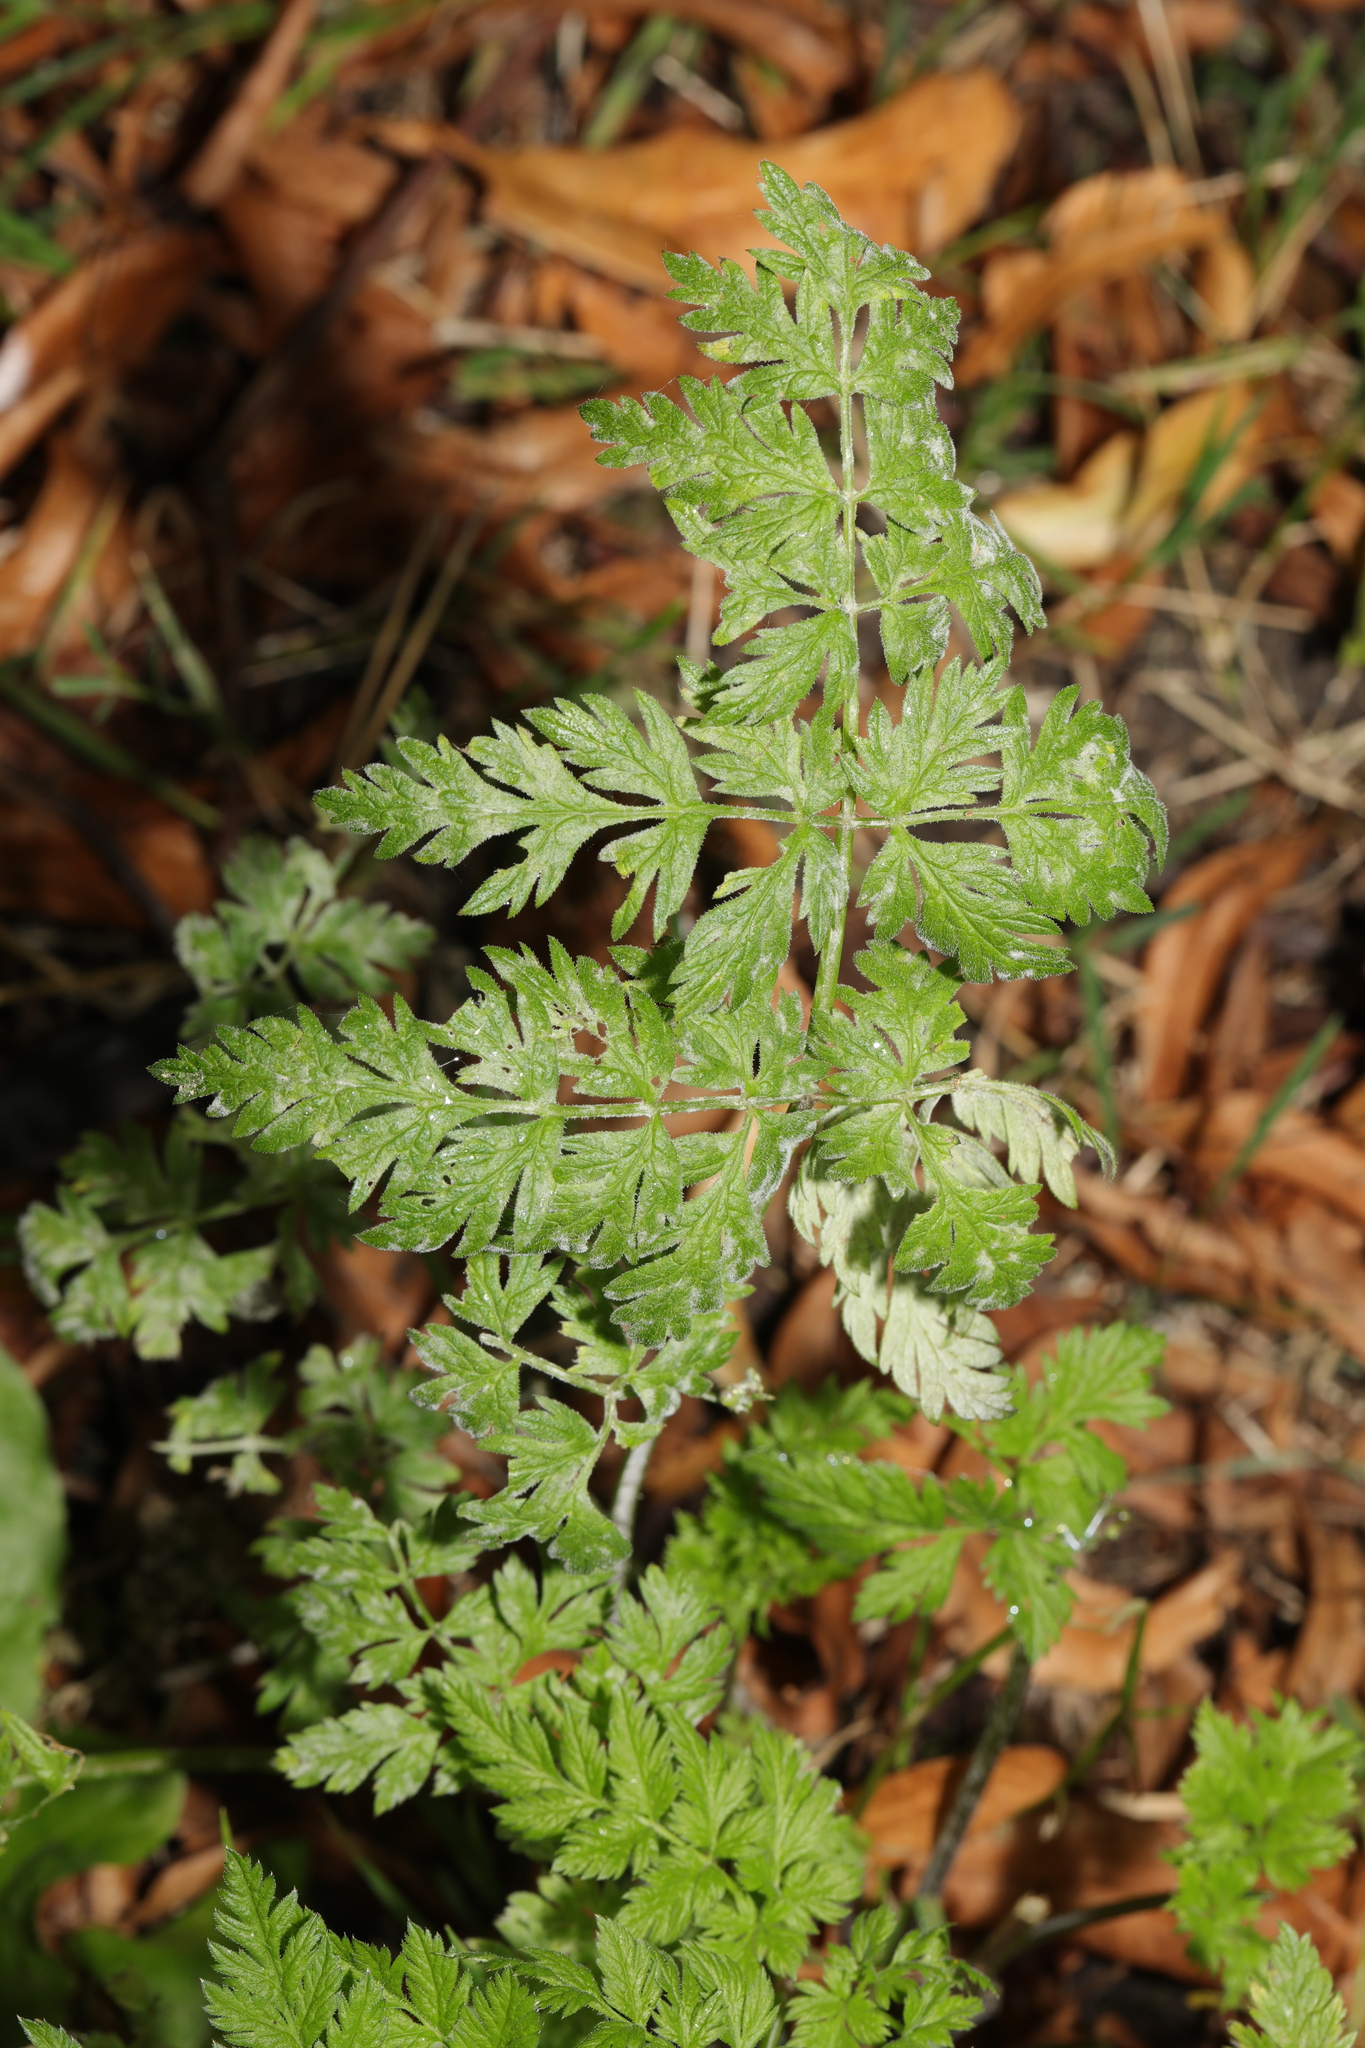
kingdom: Plantae
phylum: Tracheophyta
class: Magnoliopsida
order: Apiales
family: Apiaceae
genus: Anthriscus
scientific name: Anthriscus sylvestris
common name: Cow parsley
